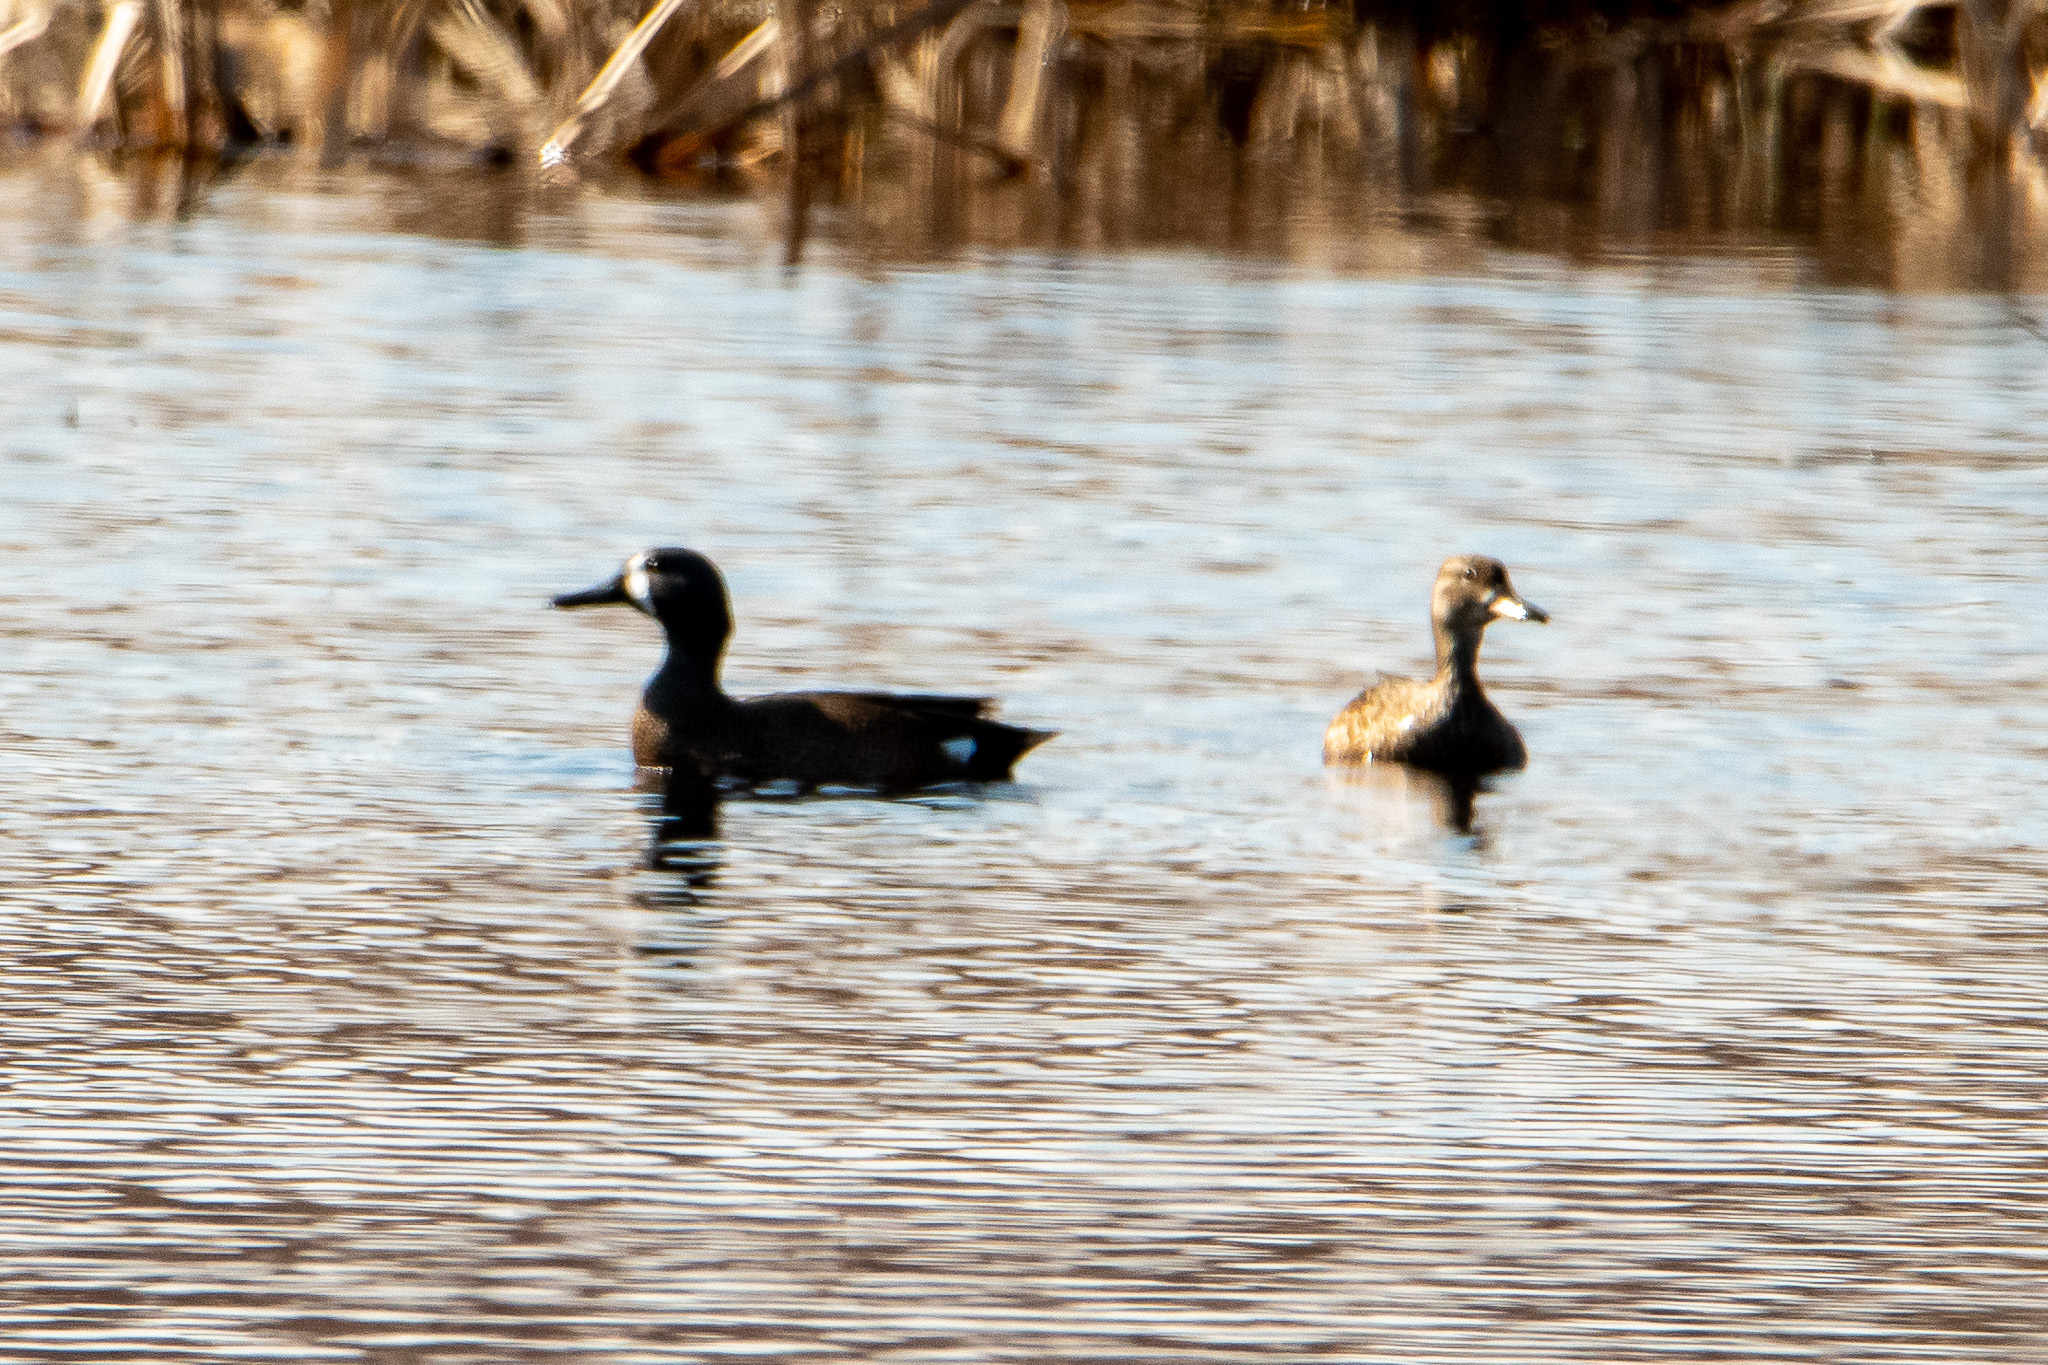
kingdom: Animalia
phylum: Chordata
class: Aves
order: Anseriformes
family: Anatidae
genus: Spatula
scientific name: Spatula discors
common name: Blue-winged teal
